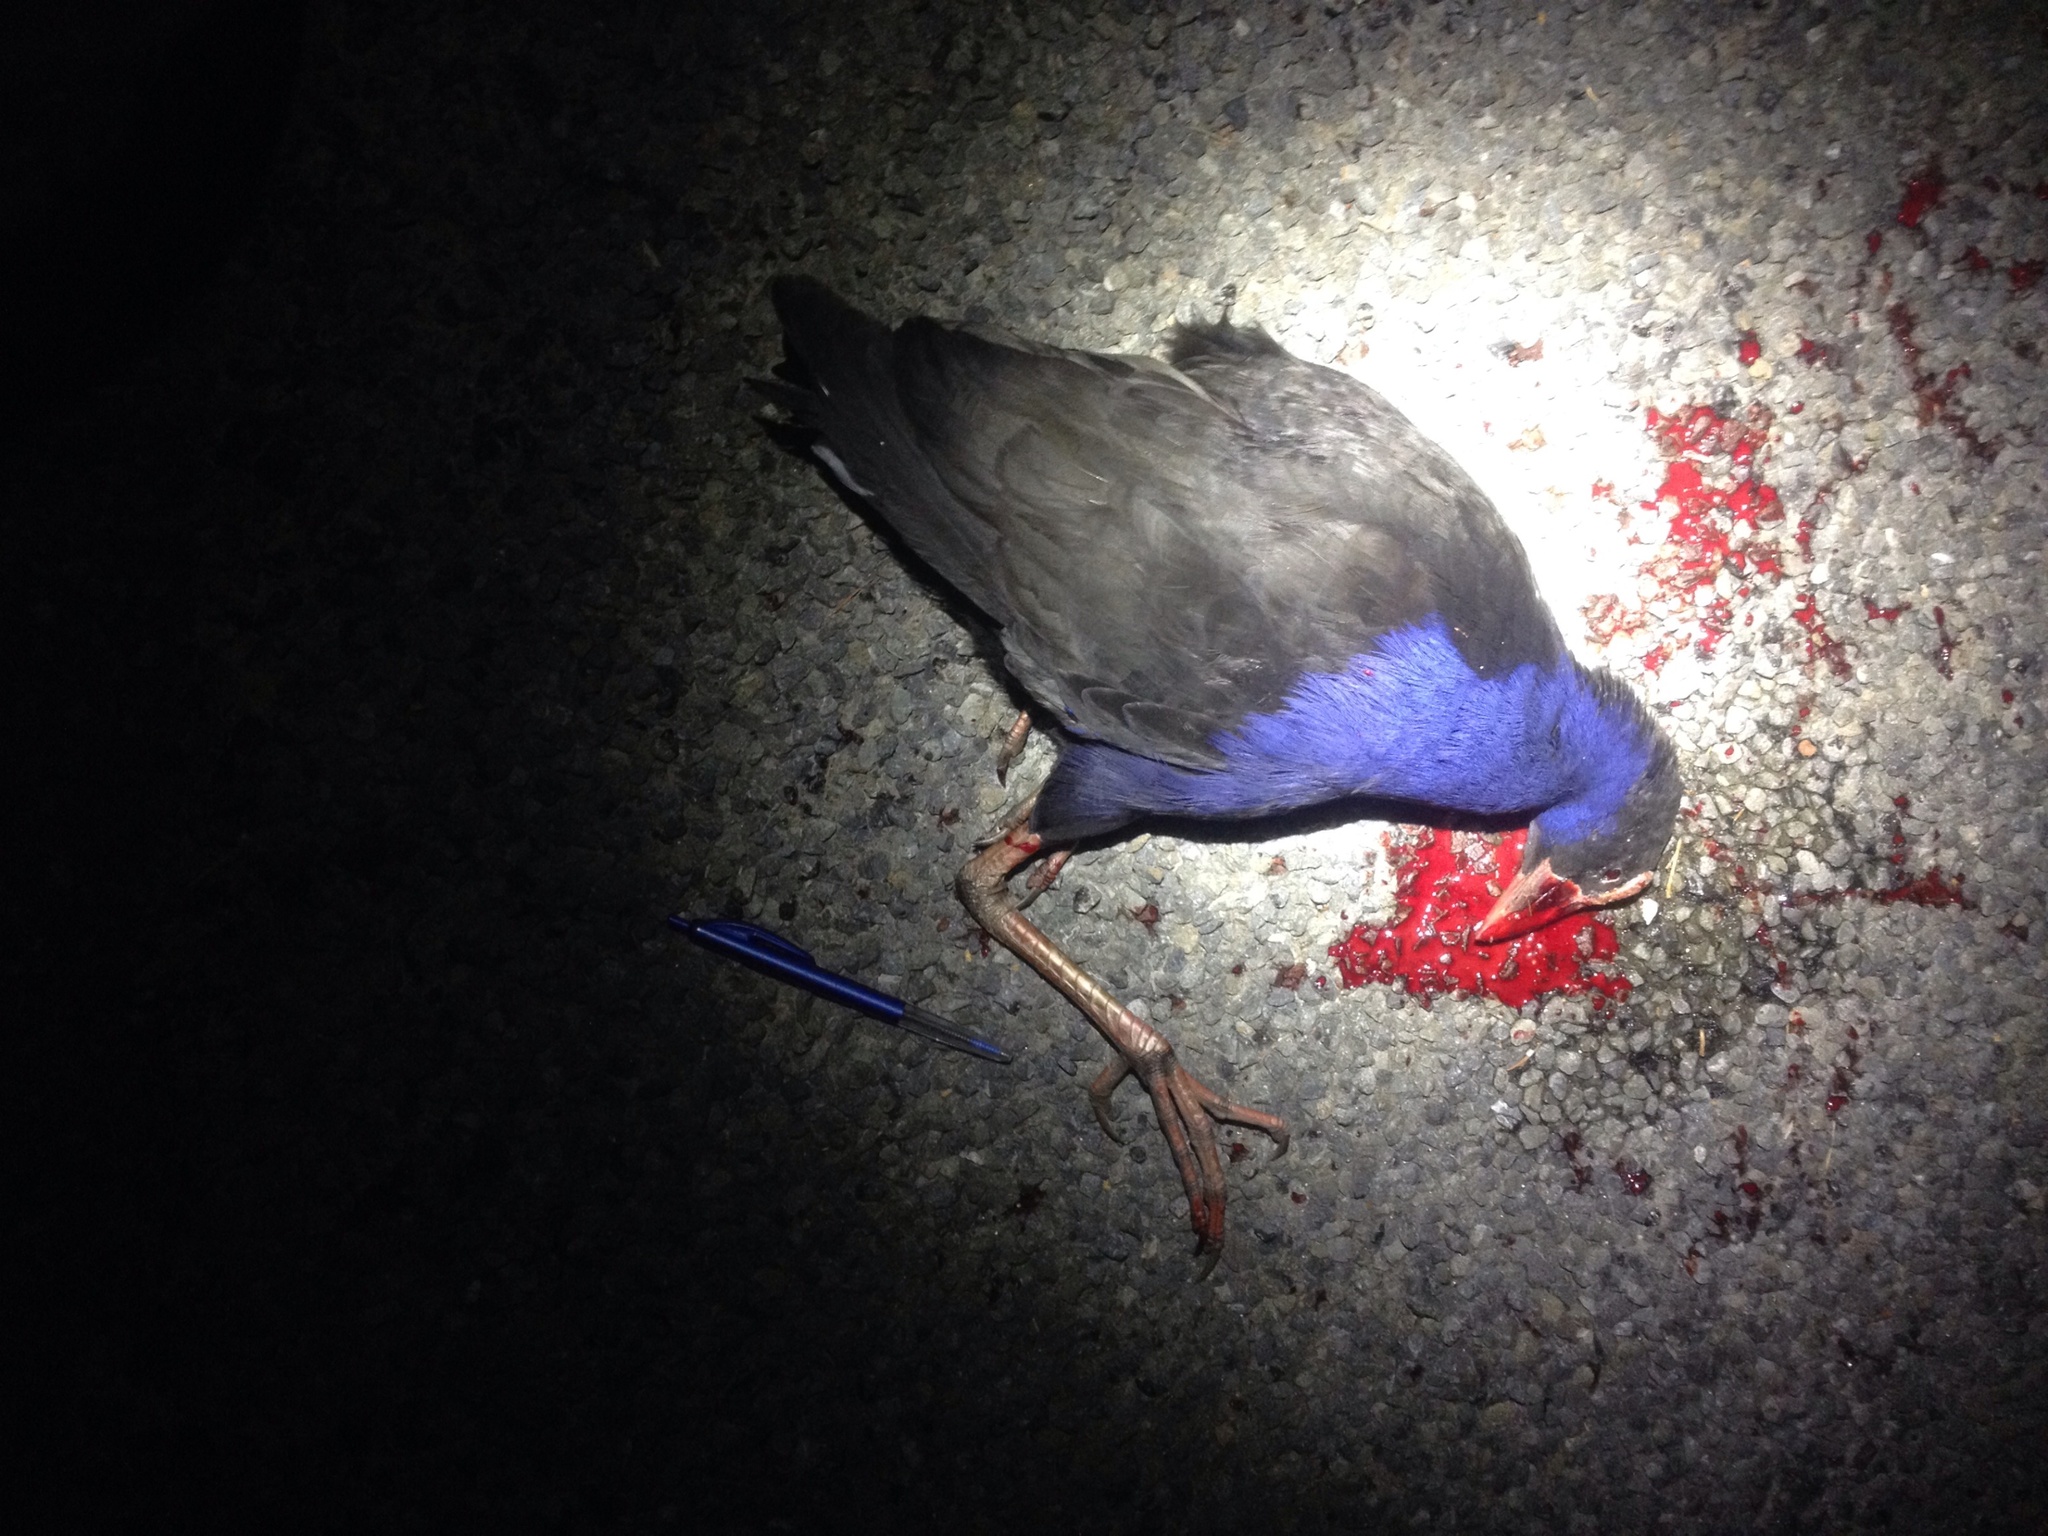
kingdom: Animalia
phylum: Chordata
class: Aves
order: Gruiformes
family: Rallidae
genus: Porphyrio
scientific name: Porphyrio melanotus
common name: Australasian swamphen
